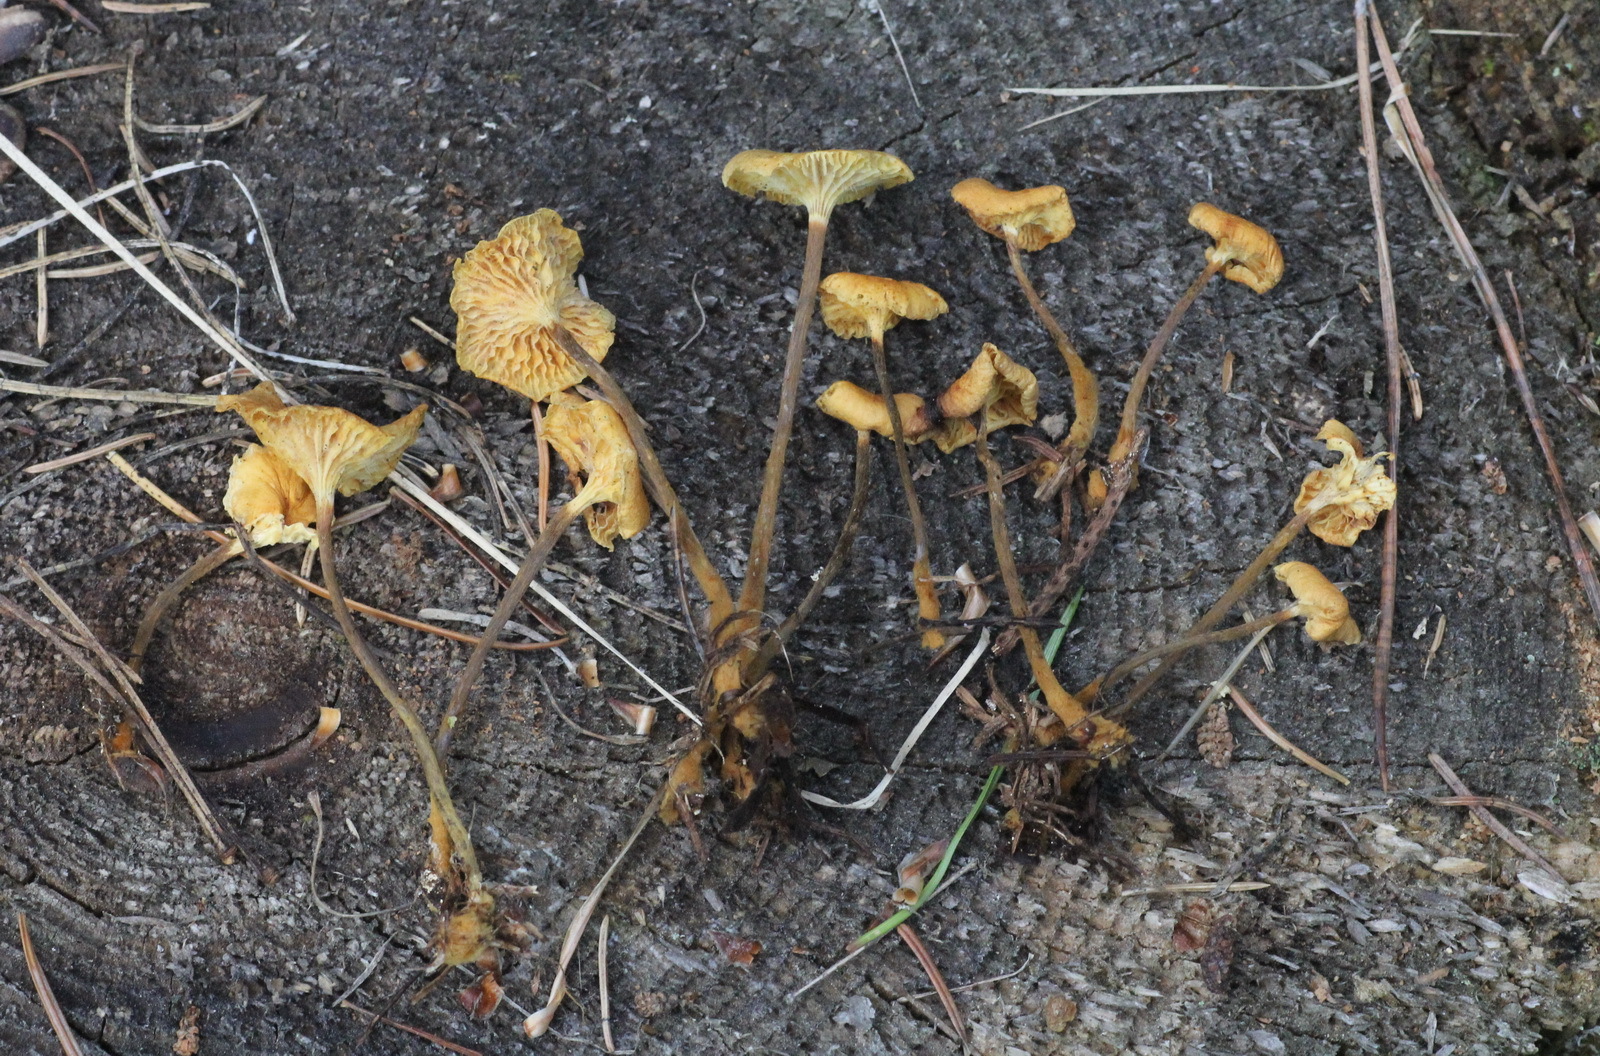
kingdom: Fungi
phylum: Basidiomycota
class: Agaricomycetes
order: Agaricales
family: Mycenaceae
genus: Xeromphalina
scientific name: Xeromphalina cauticinalis
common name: Pinelitter gingertail
